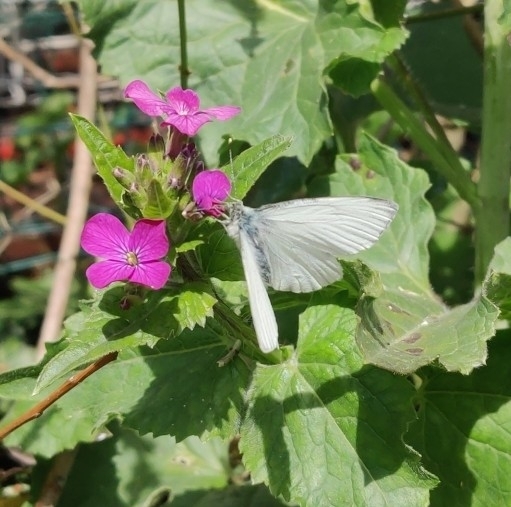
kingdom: Animalia
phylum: Arthropoda
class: Insecta
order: Lepidoptera
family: Pieridae
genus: Pieris
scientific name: Pieris napi
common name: Green-veined white
